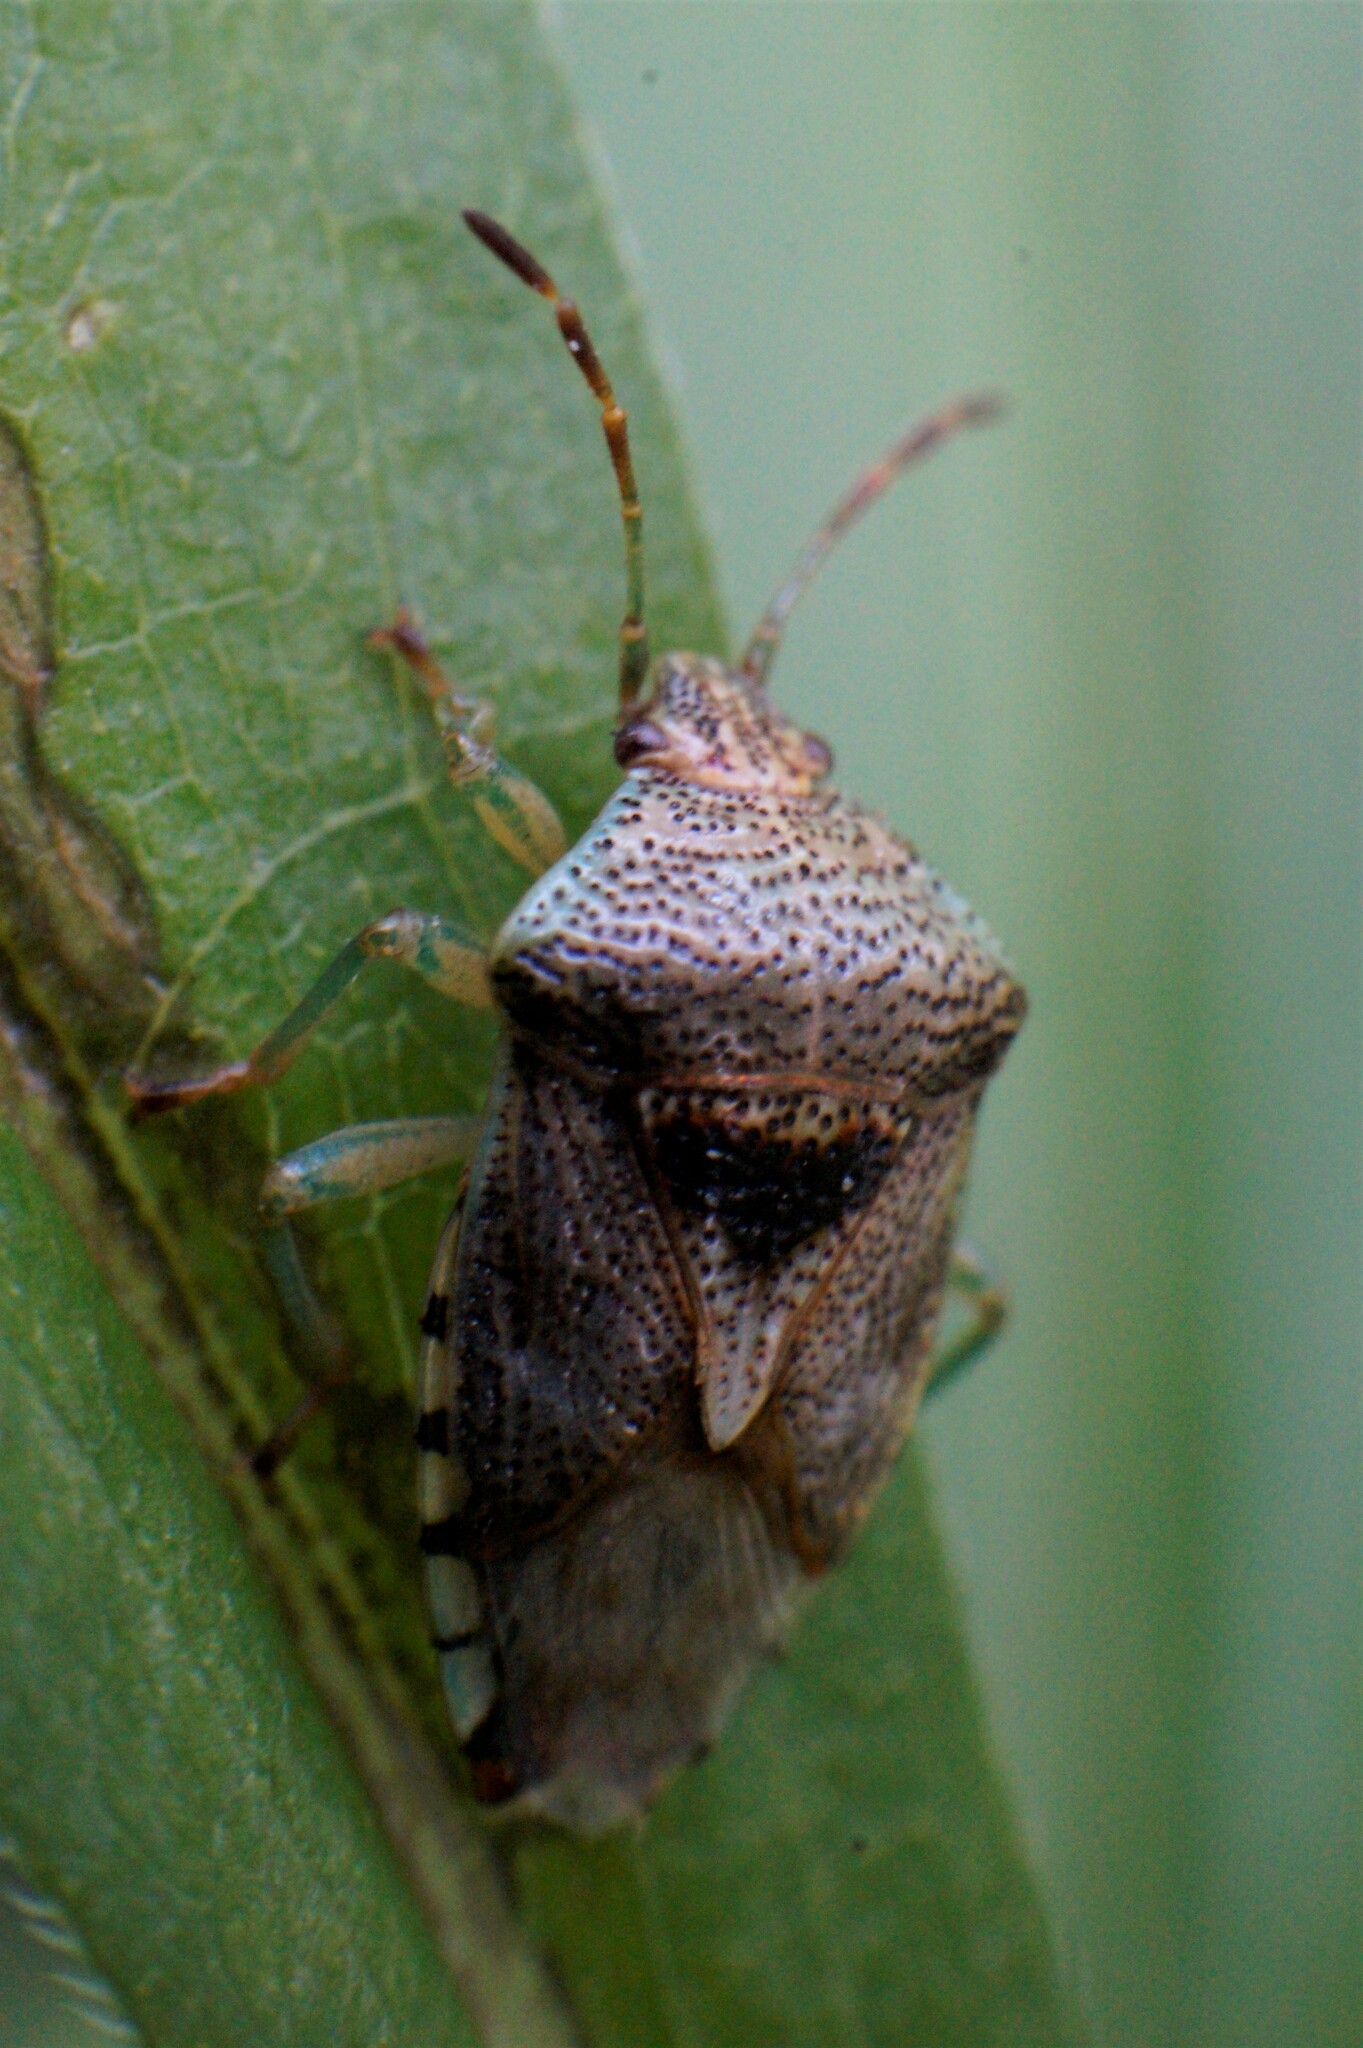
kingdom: Animalia
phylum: Arthropoda
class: Insecta
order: Hemiptera
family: Acanthosomatidae
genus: Elasmucha
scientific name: Elasmucha grisea
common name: Parent bug
